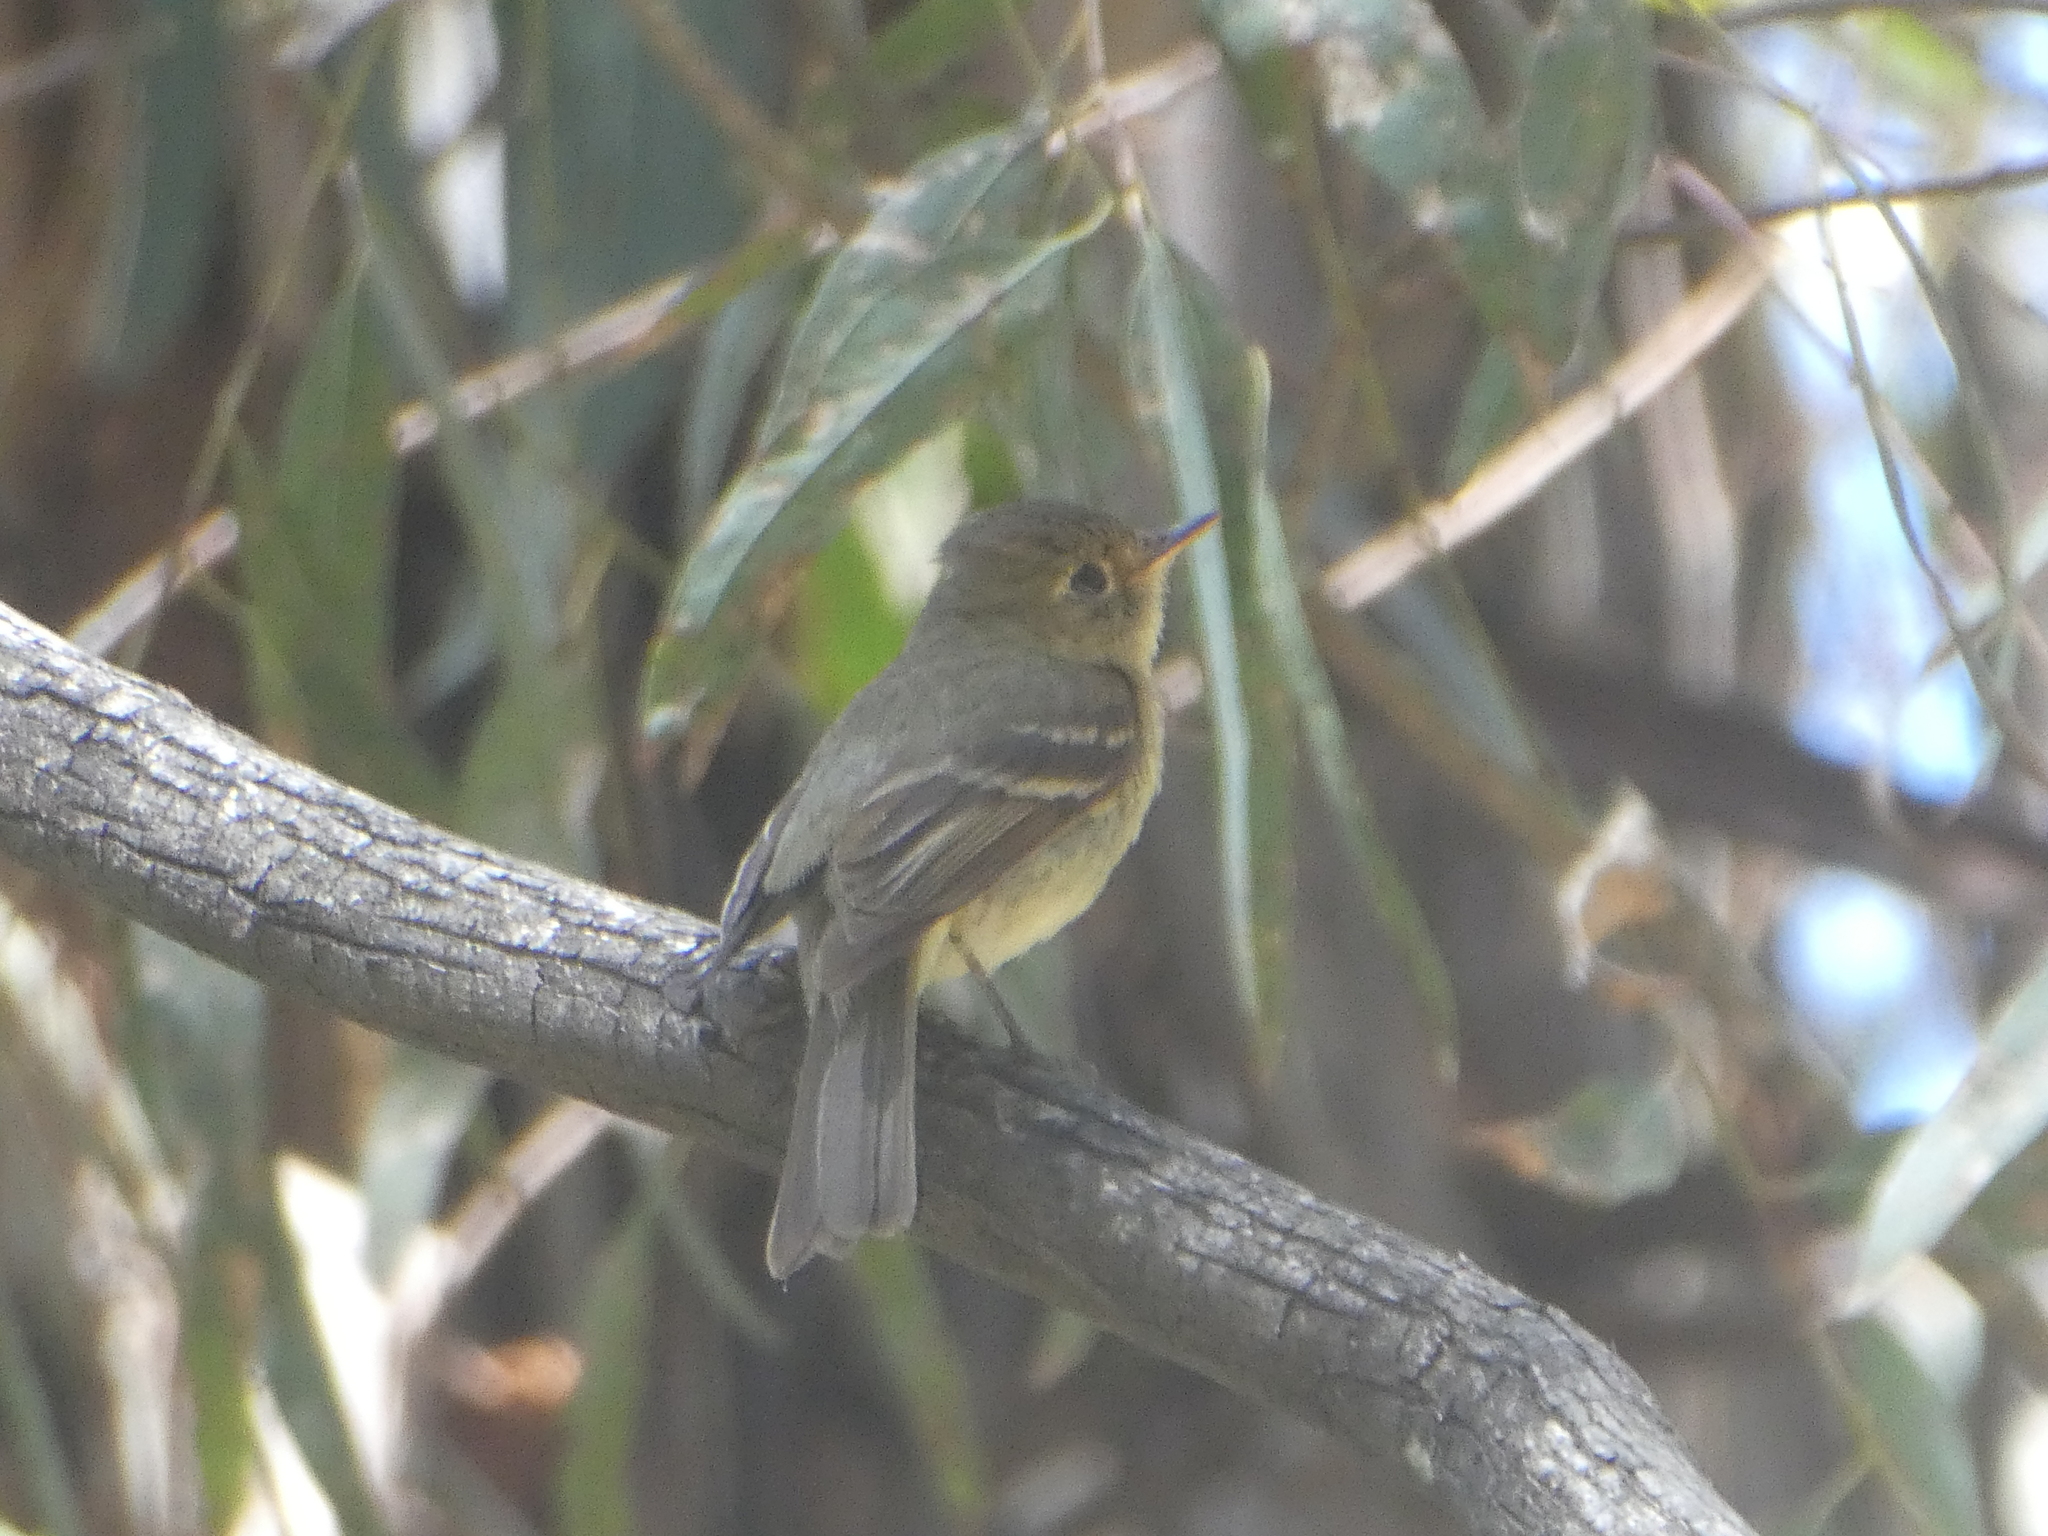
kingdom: Animalia
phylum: Chordata
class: Aves
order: Passeriformes
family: Tyrannidae
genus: Empidonax
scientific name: Empidonax difficilis
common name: Pacific-slope flycatcher
